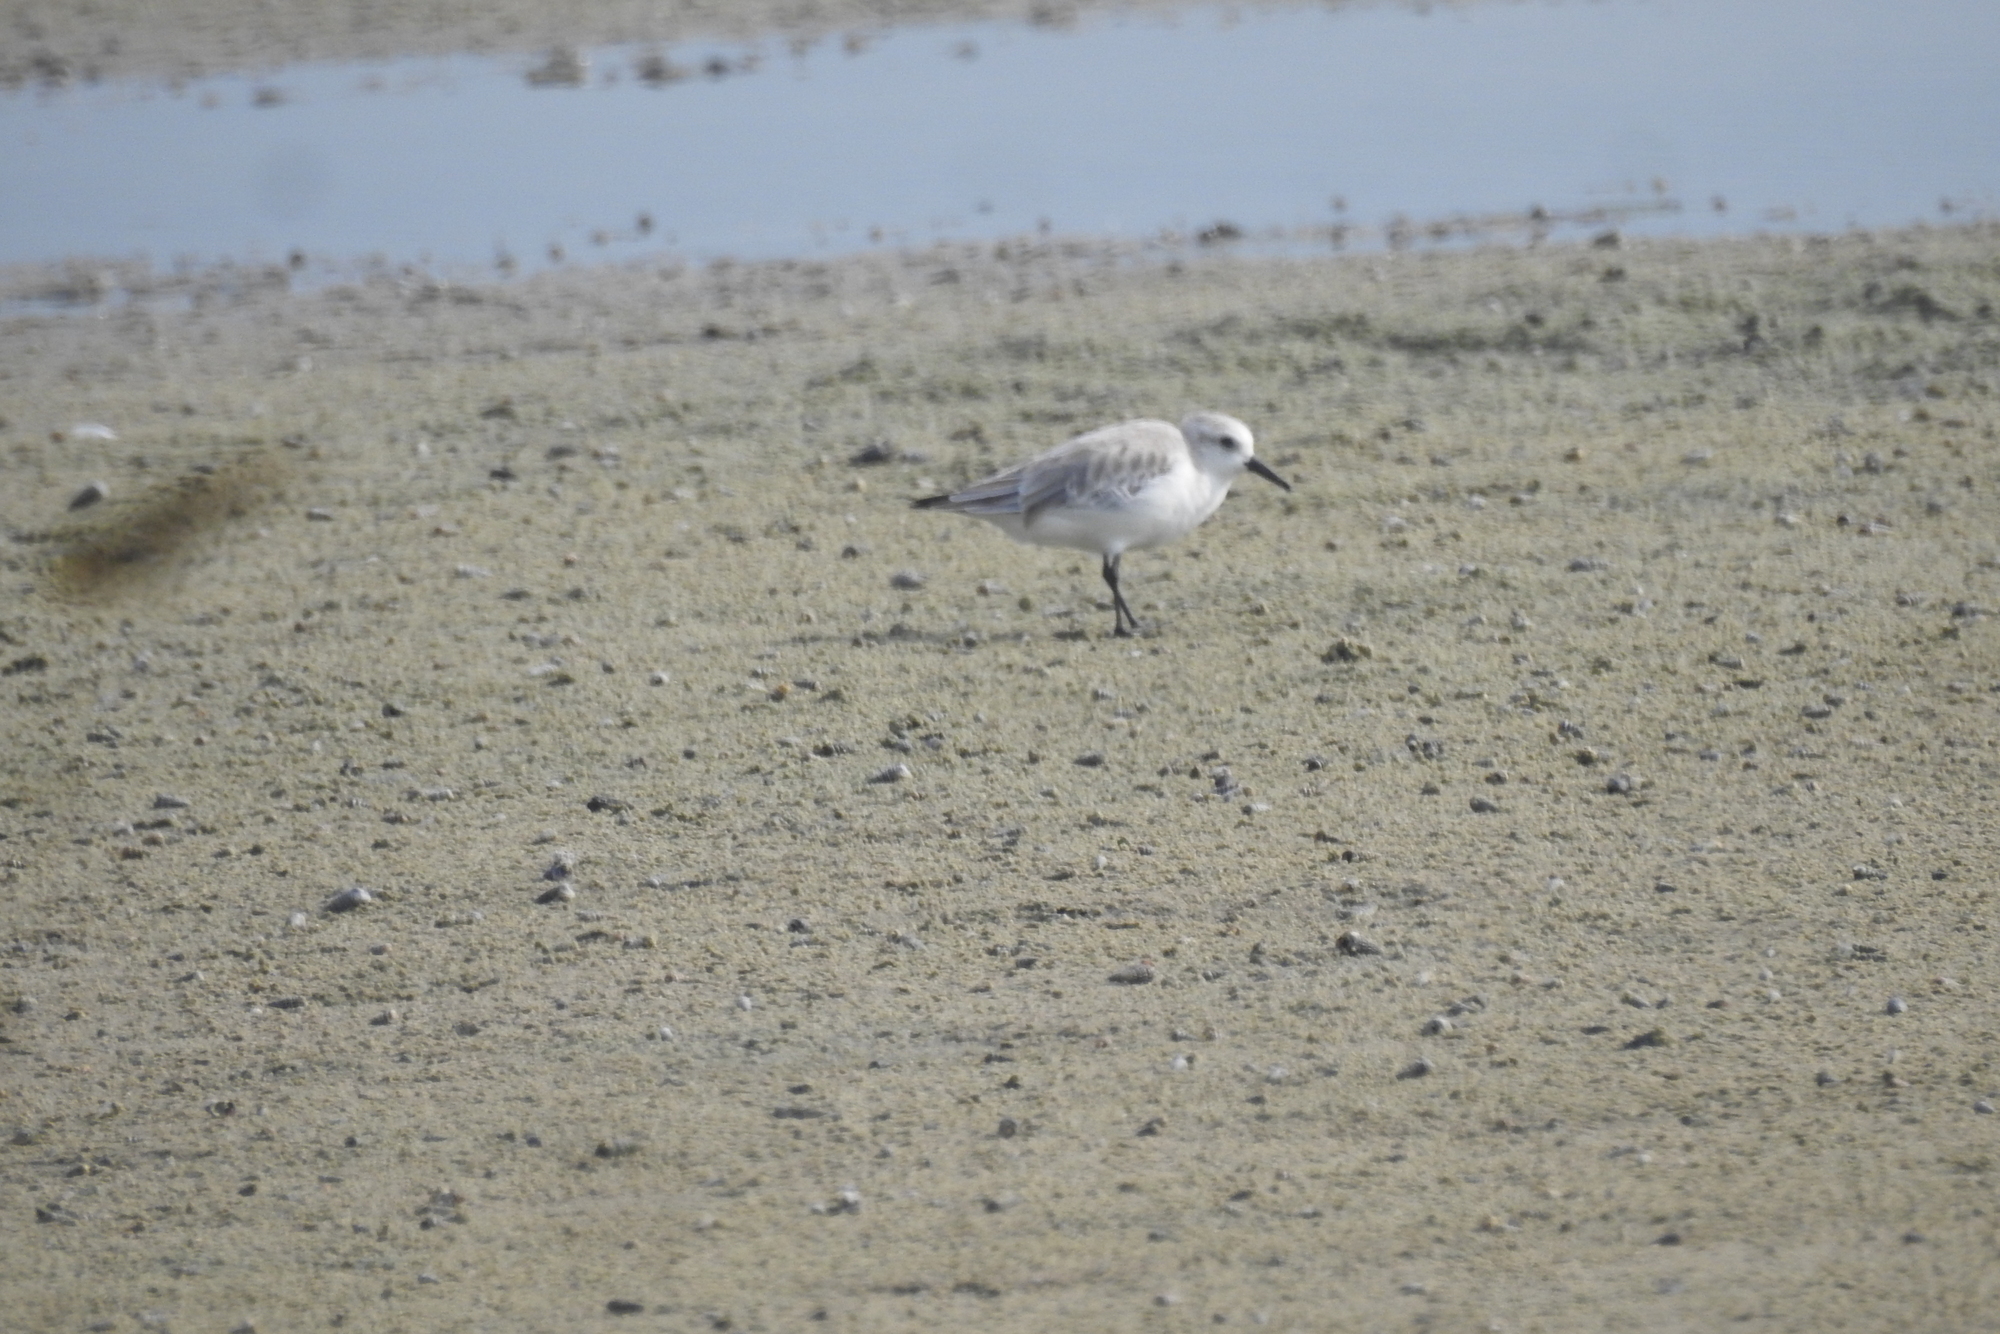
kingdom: Animalia
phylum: Chordata
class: Aves
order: Charadriiformes
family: Scolopacidae
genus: Calidris
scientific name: Calidris alba
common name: Sanderling
